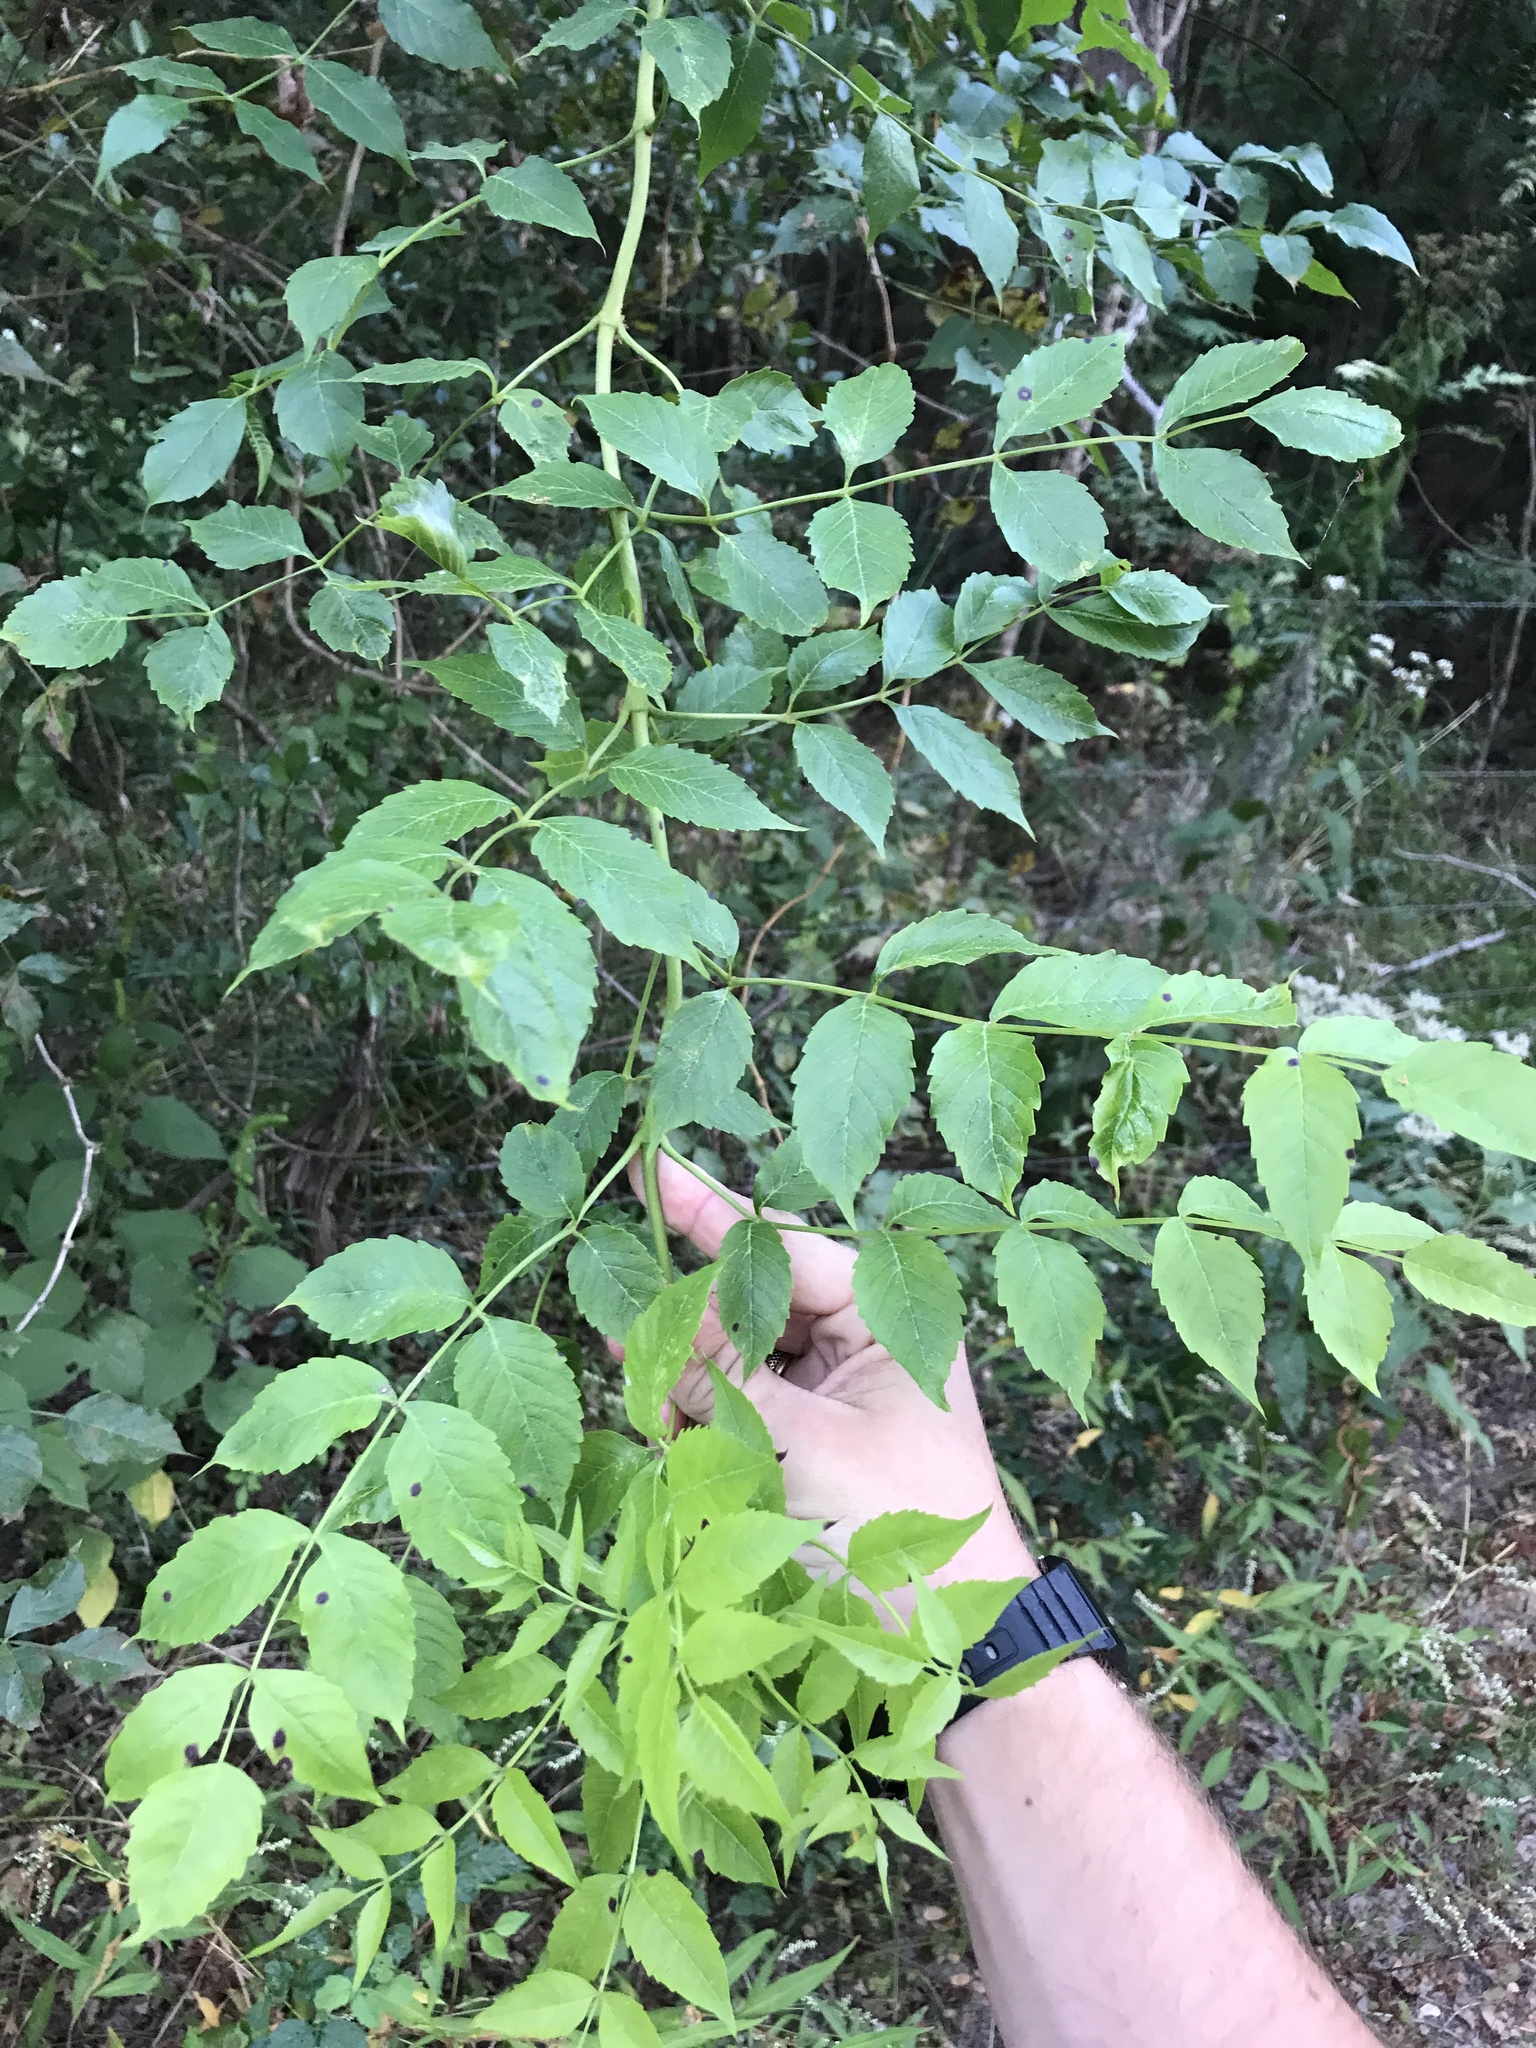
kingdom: Plantae
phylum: Tracheophyta
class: Magnoliopsida
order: Lamiales
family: Bignoniaceae
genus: Campsis
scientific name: Campsis radicans
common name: Trumpet-creeper
